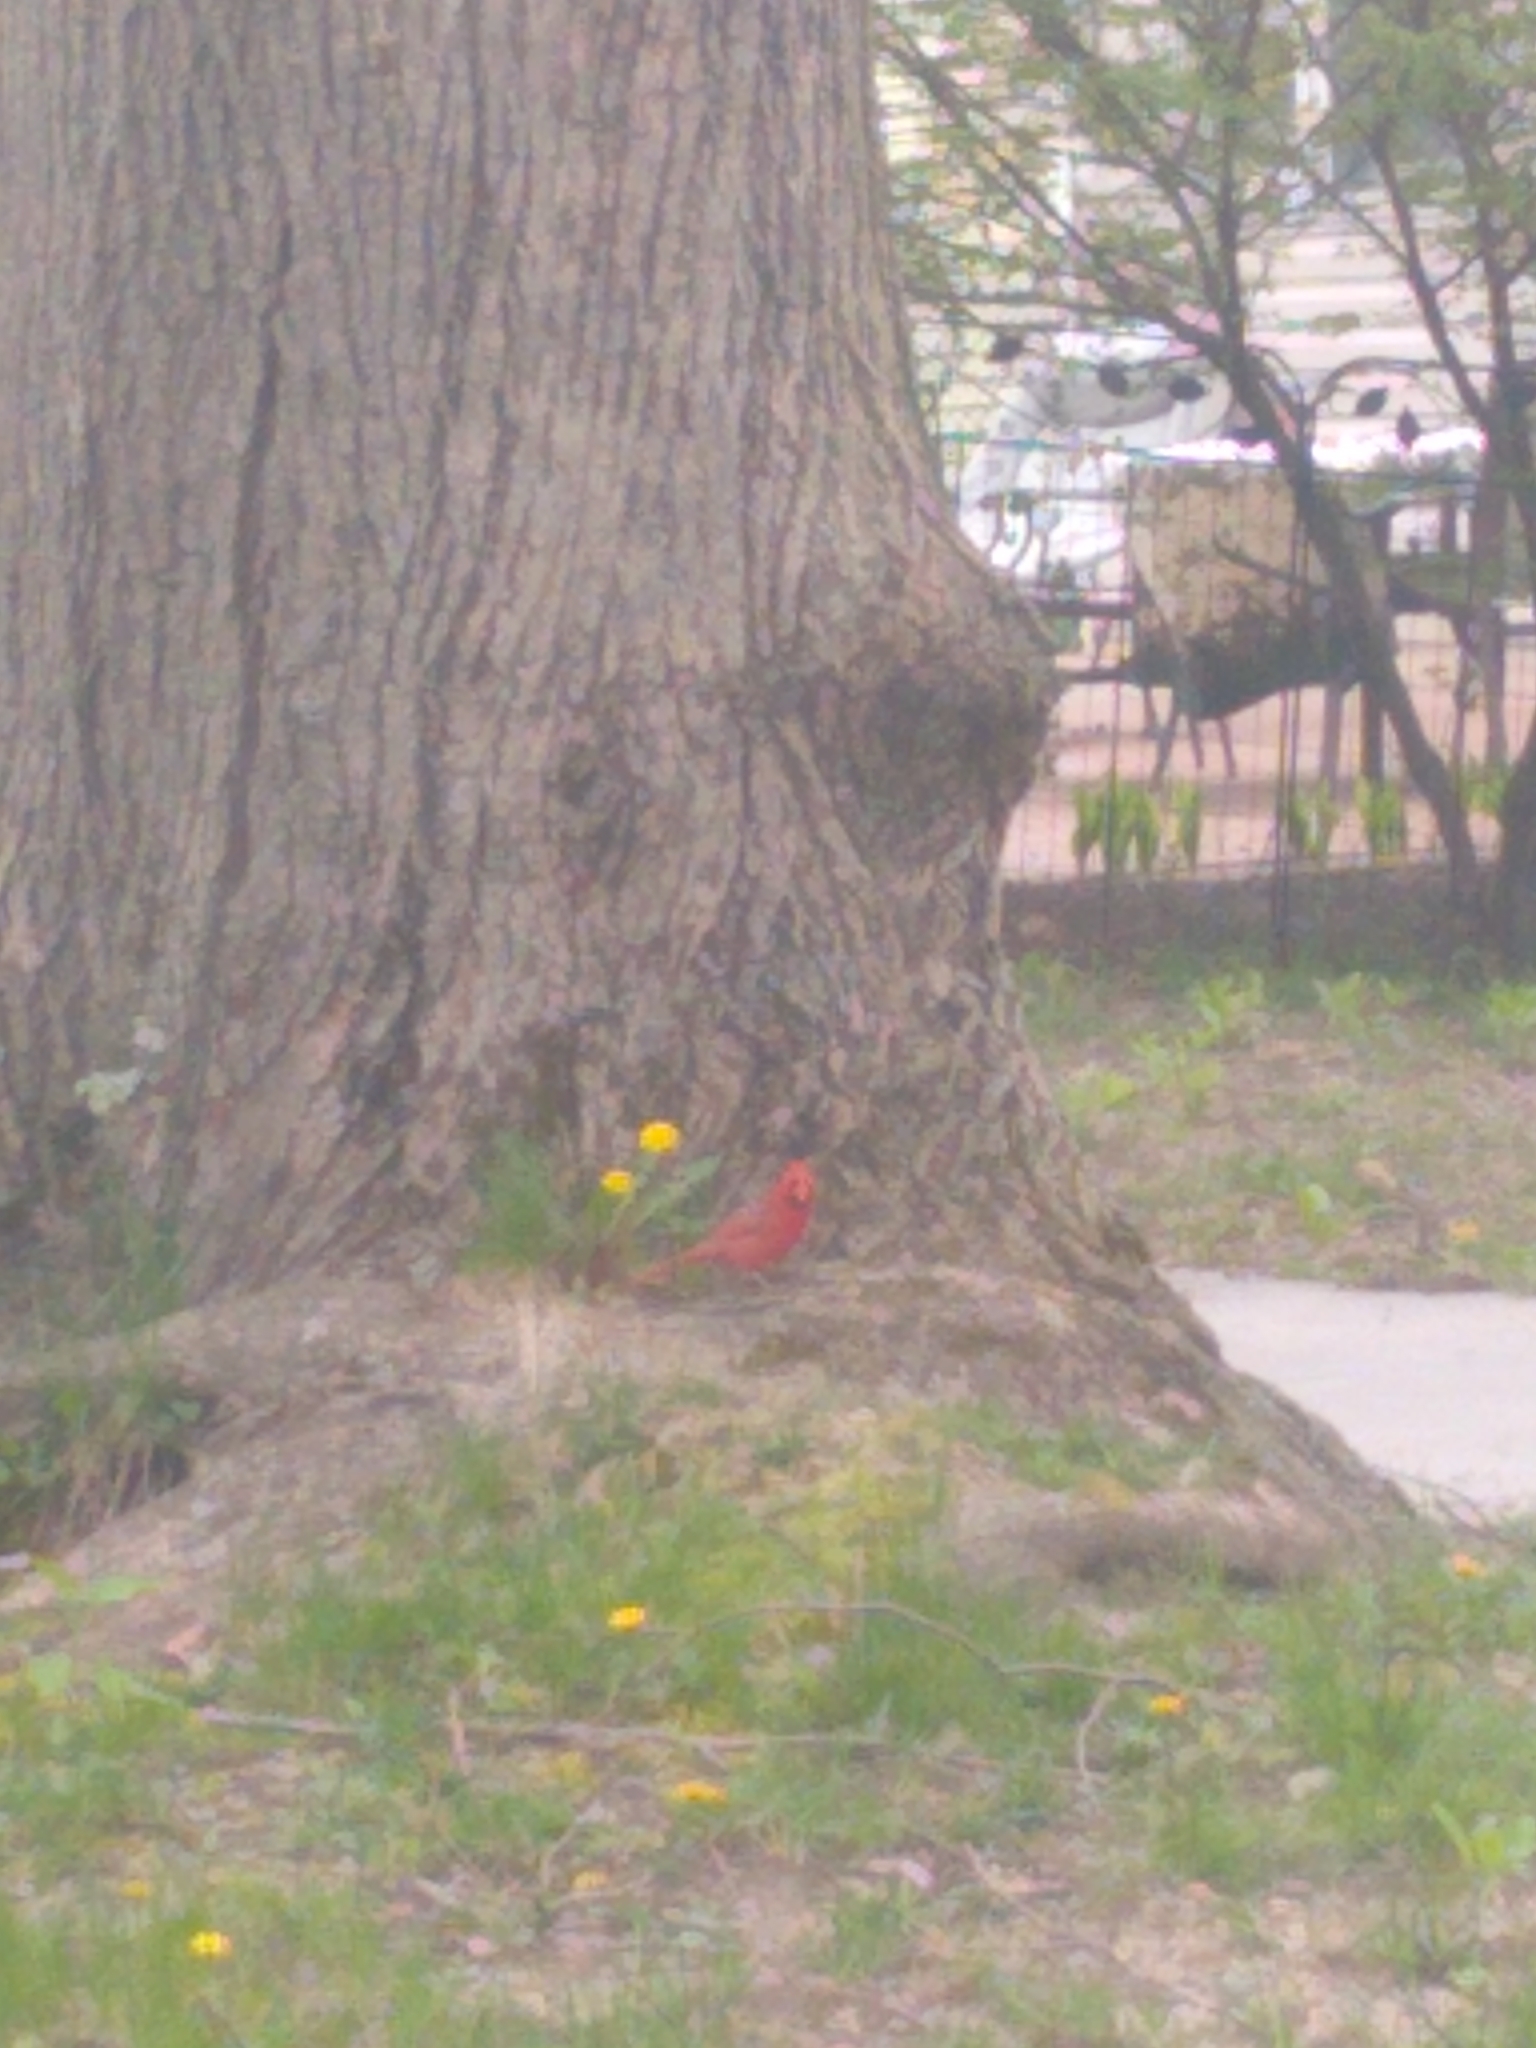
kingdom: Animalia
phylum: Chordata
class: Aves
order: Passeriformes
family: Cardinalidae
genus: Cardinalis
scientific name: Cardinalis cardinalis
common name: Northern cardinal
